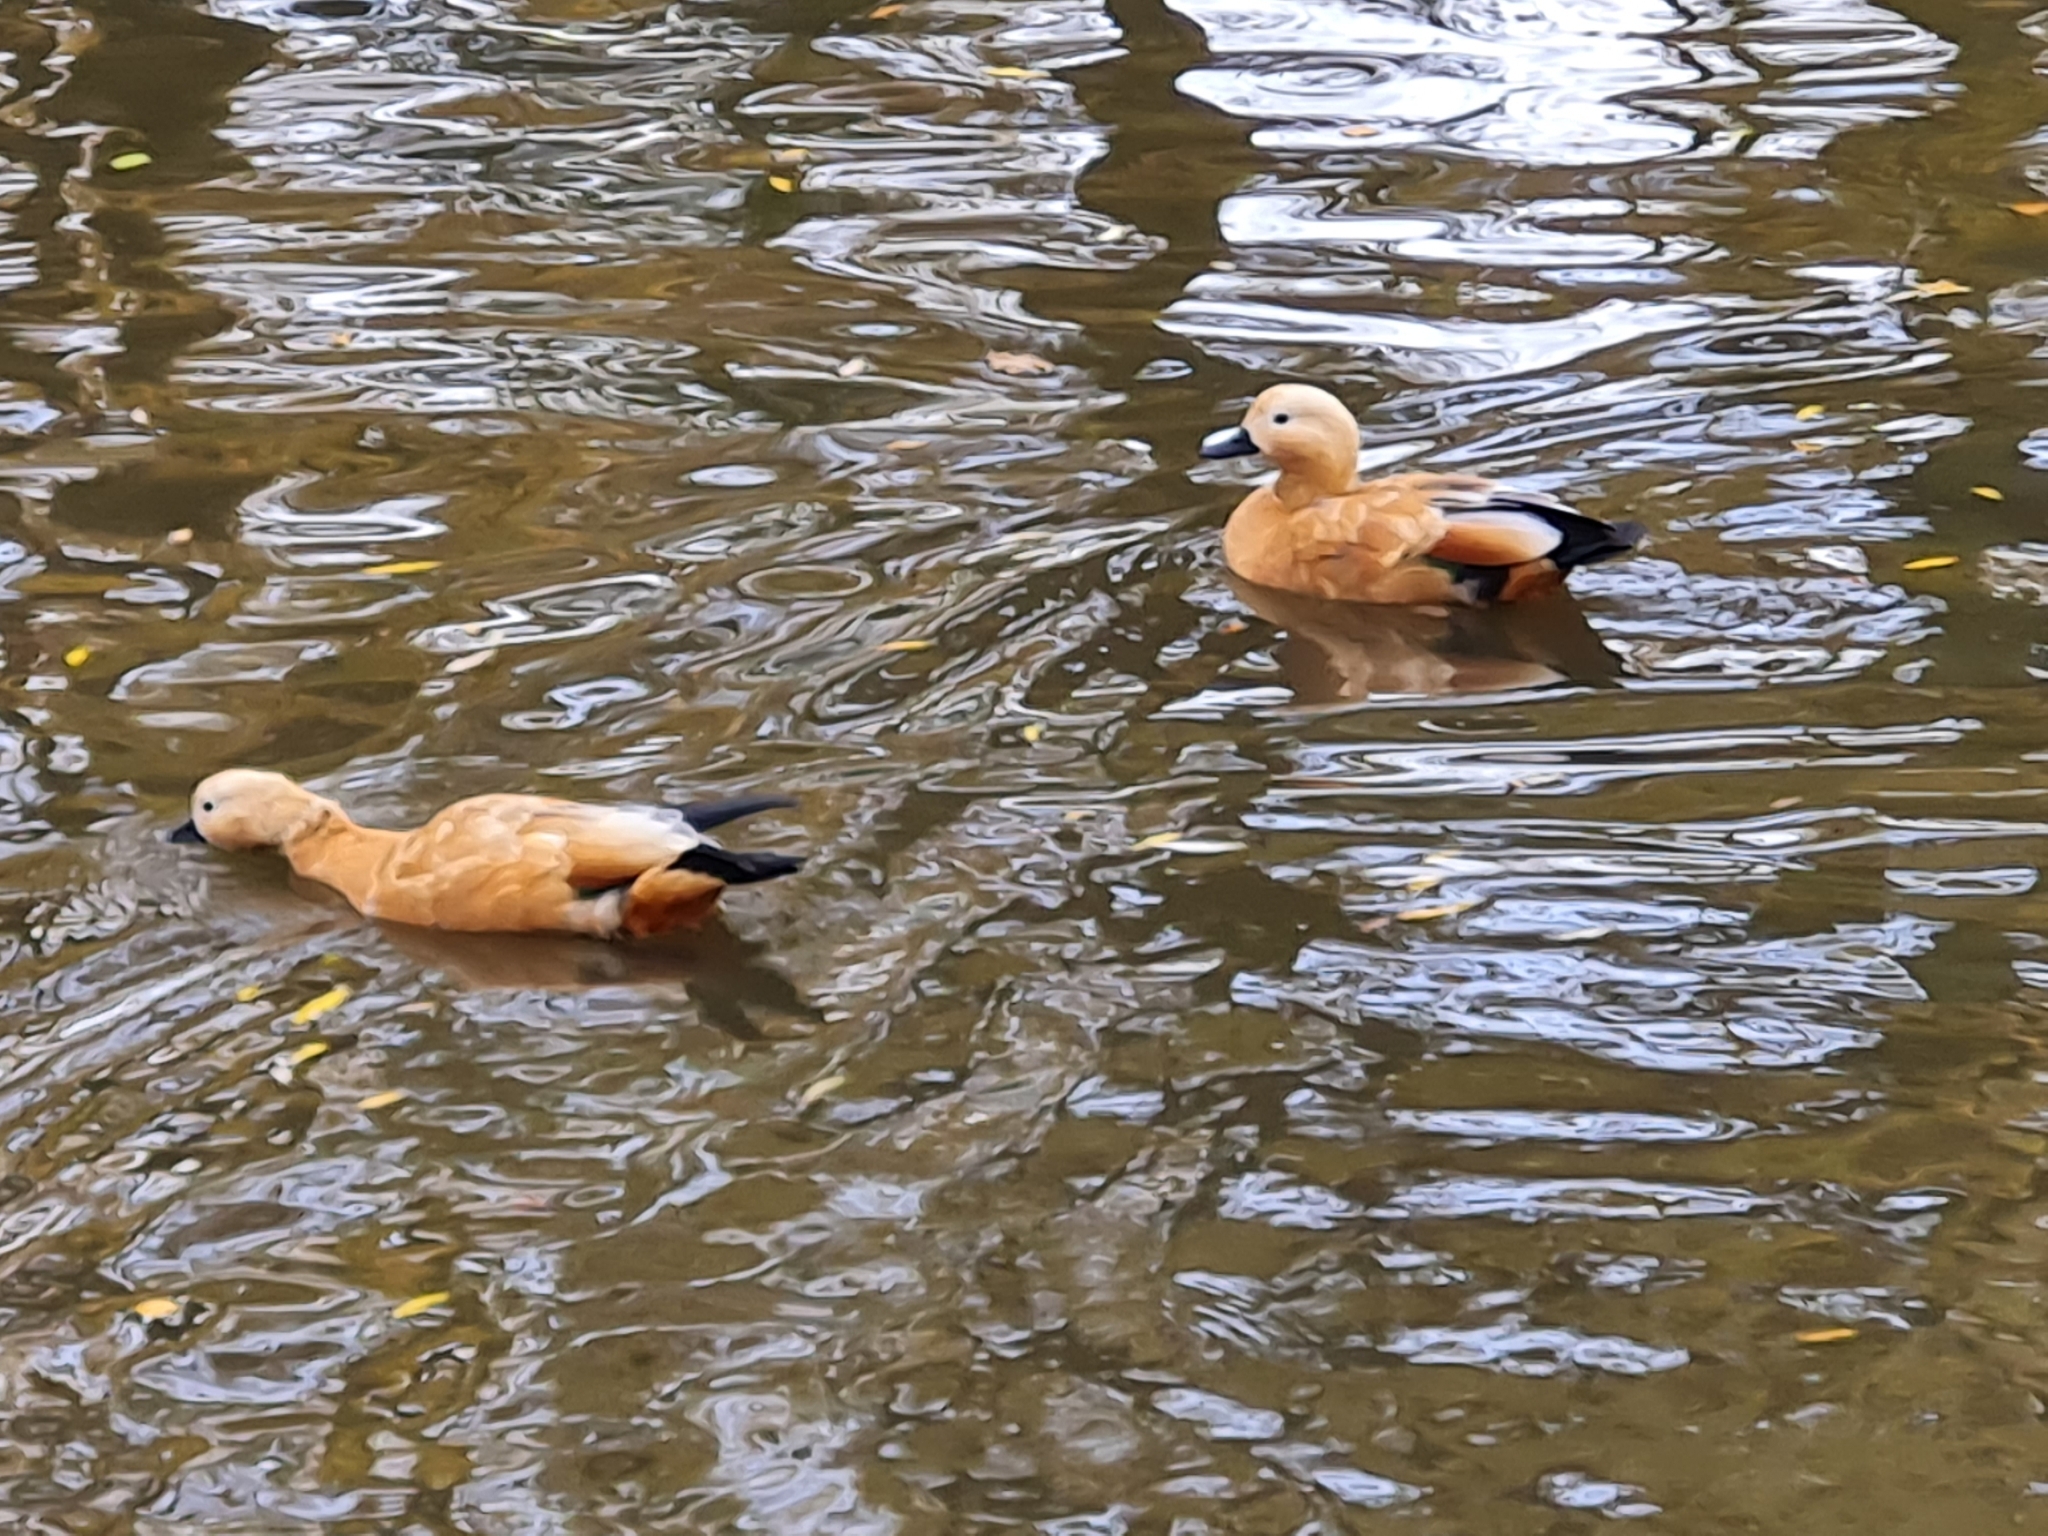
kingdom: Animalia
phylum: Chordata
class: Aves
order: Anseriformes
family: Anatidae
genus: Tadorna
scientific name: Tadorna ferruginea
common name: Ruddy shelduck
